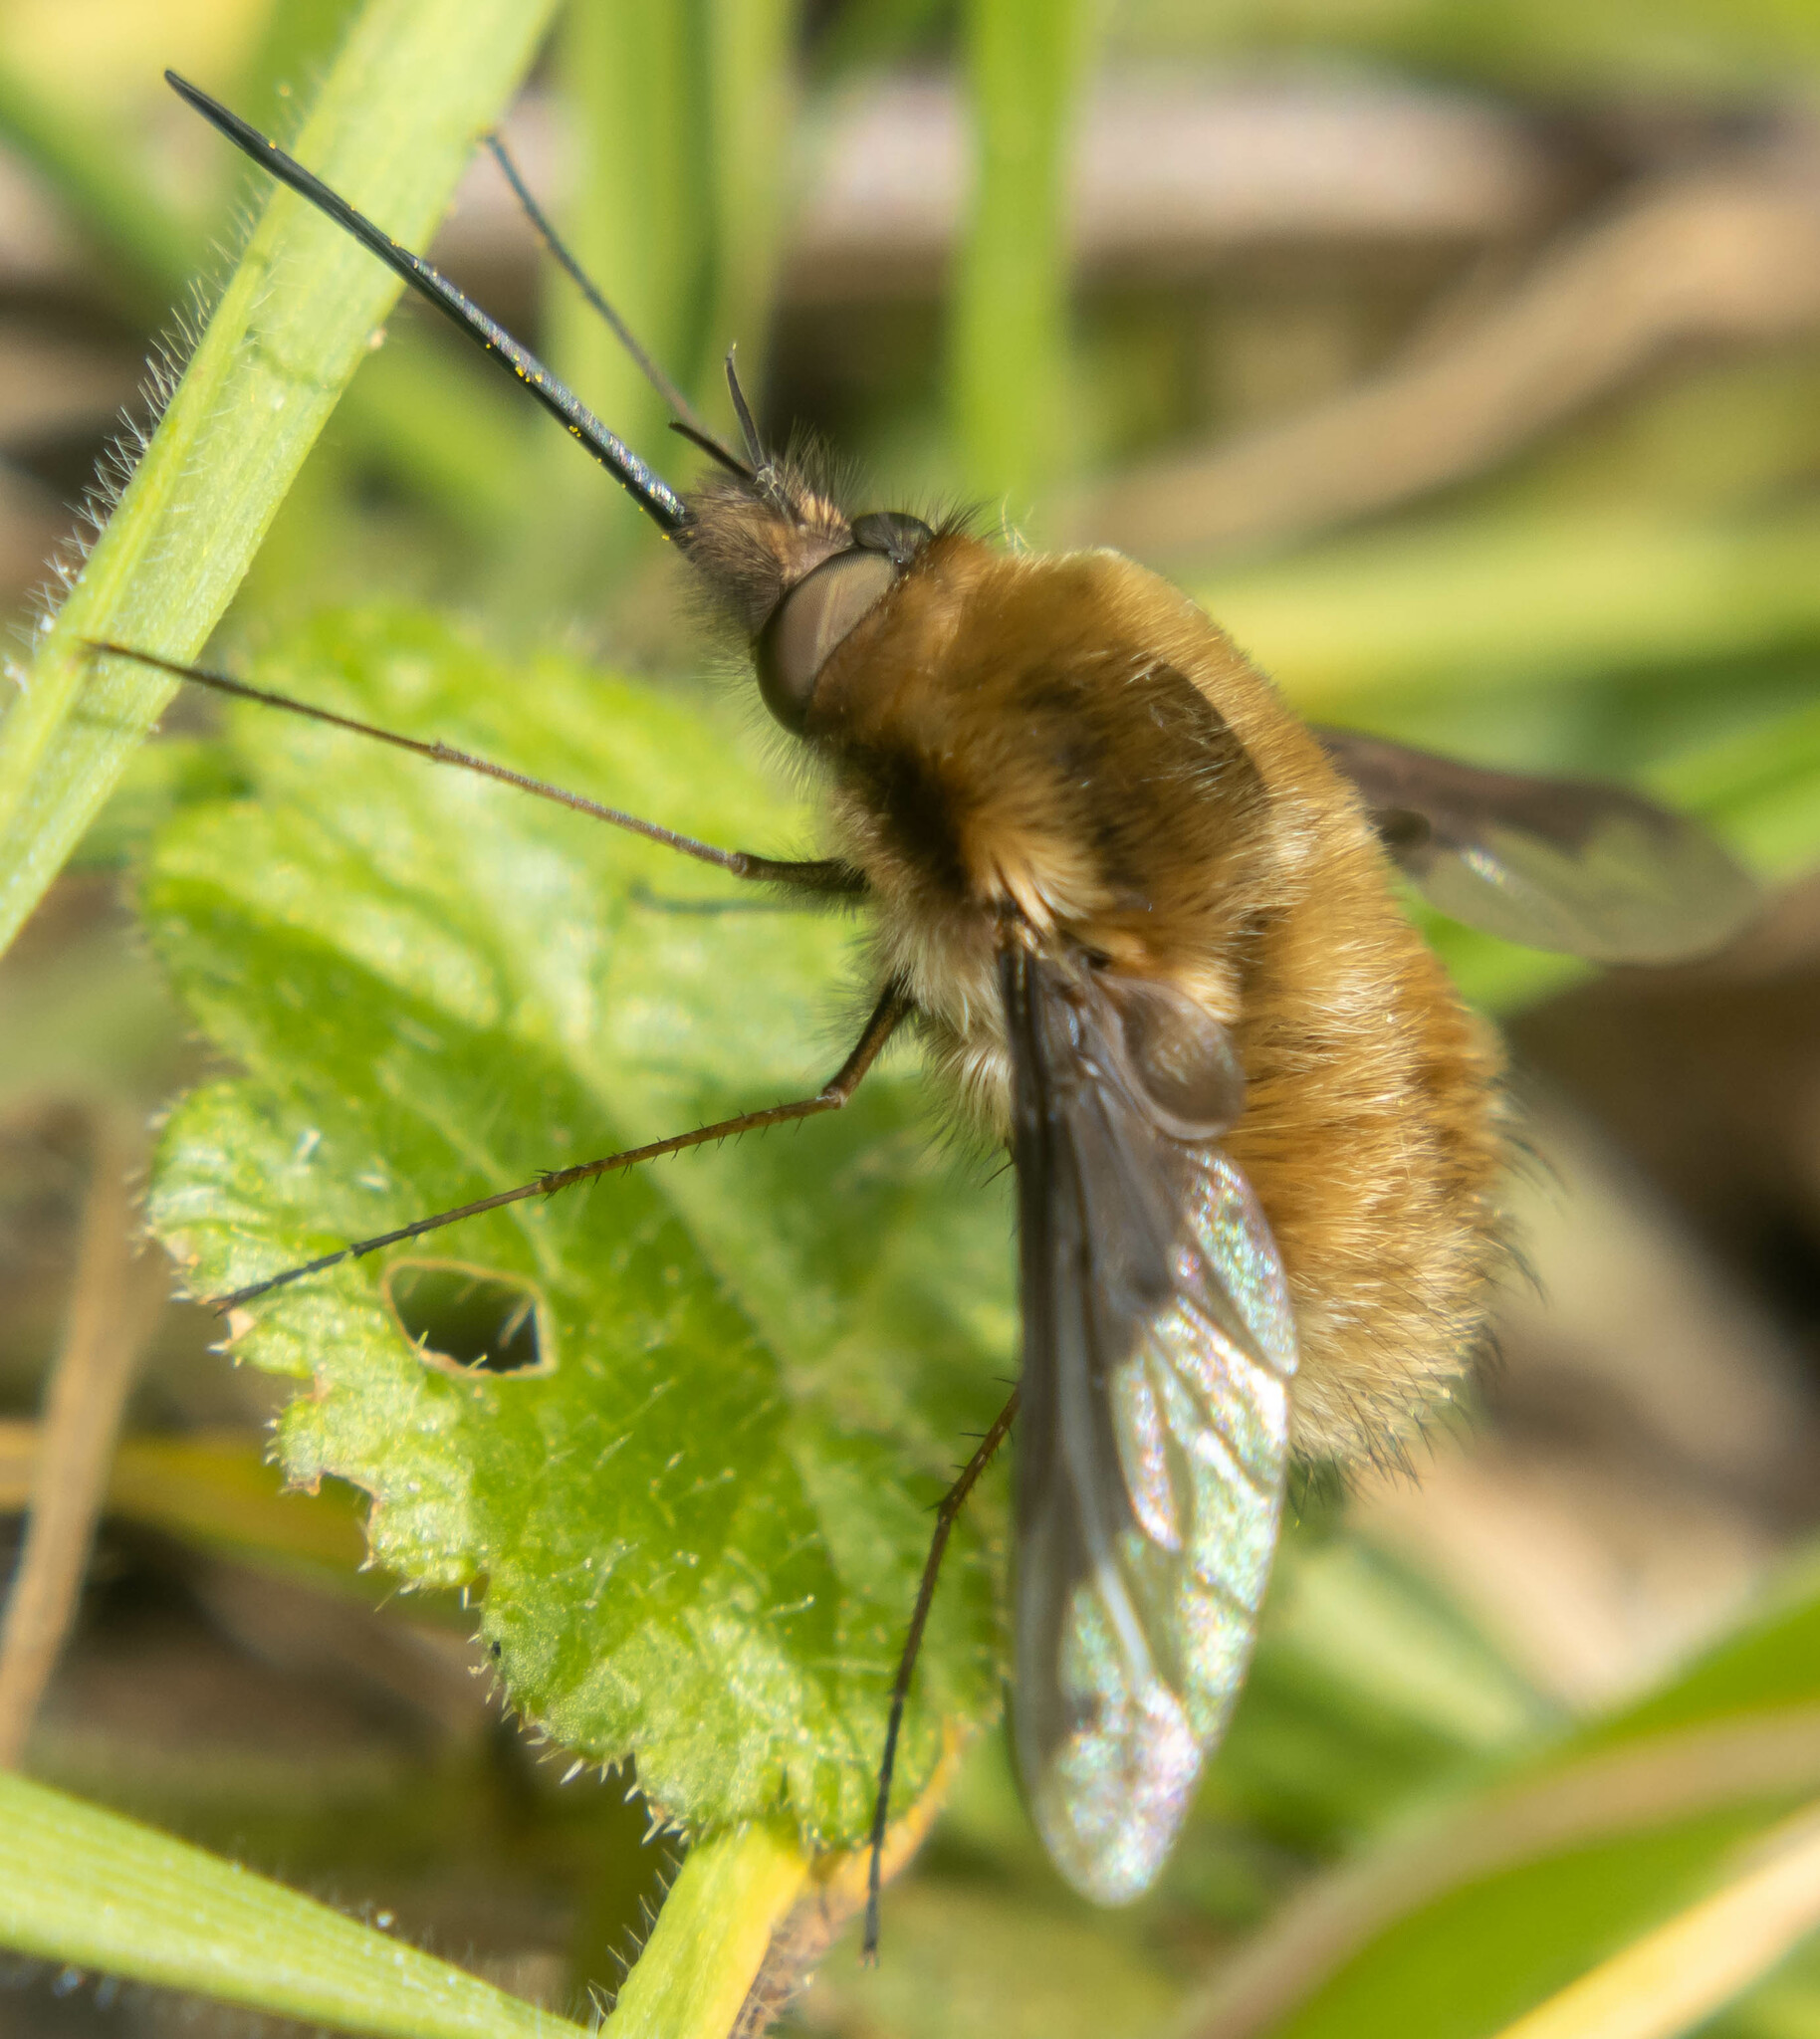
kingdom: Animalia
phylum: Arthropoda
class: Insecta
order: Diptera
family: Bombyliidae
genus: Bombylius
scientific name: Bombylius major
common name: Bee fly
